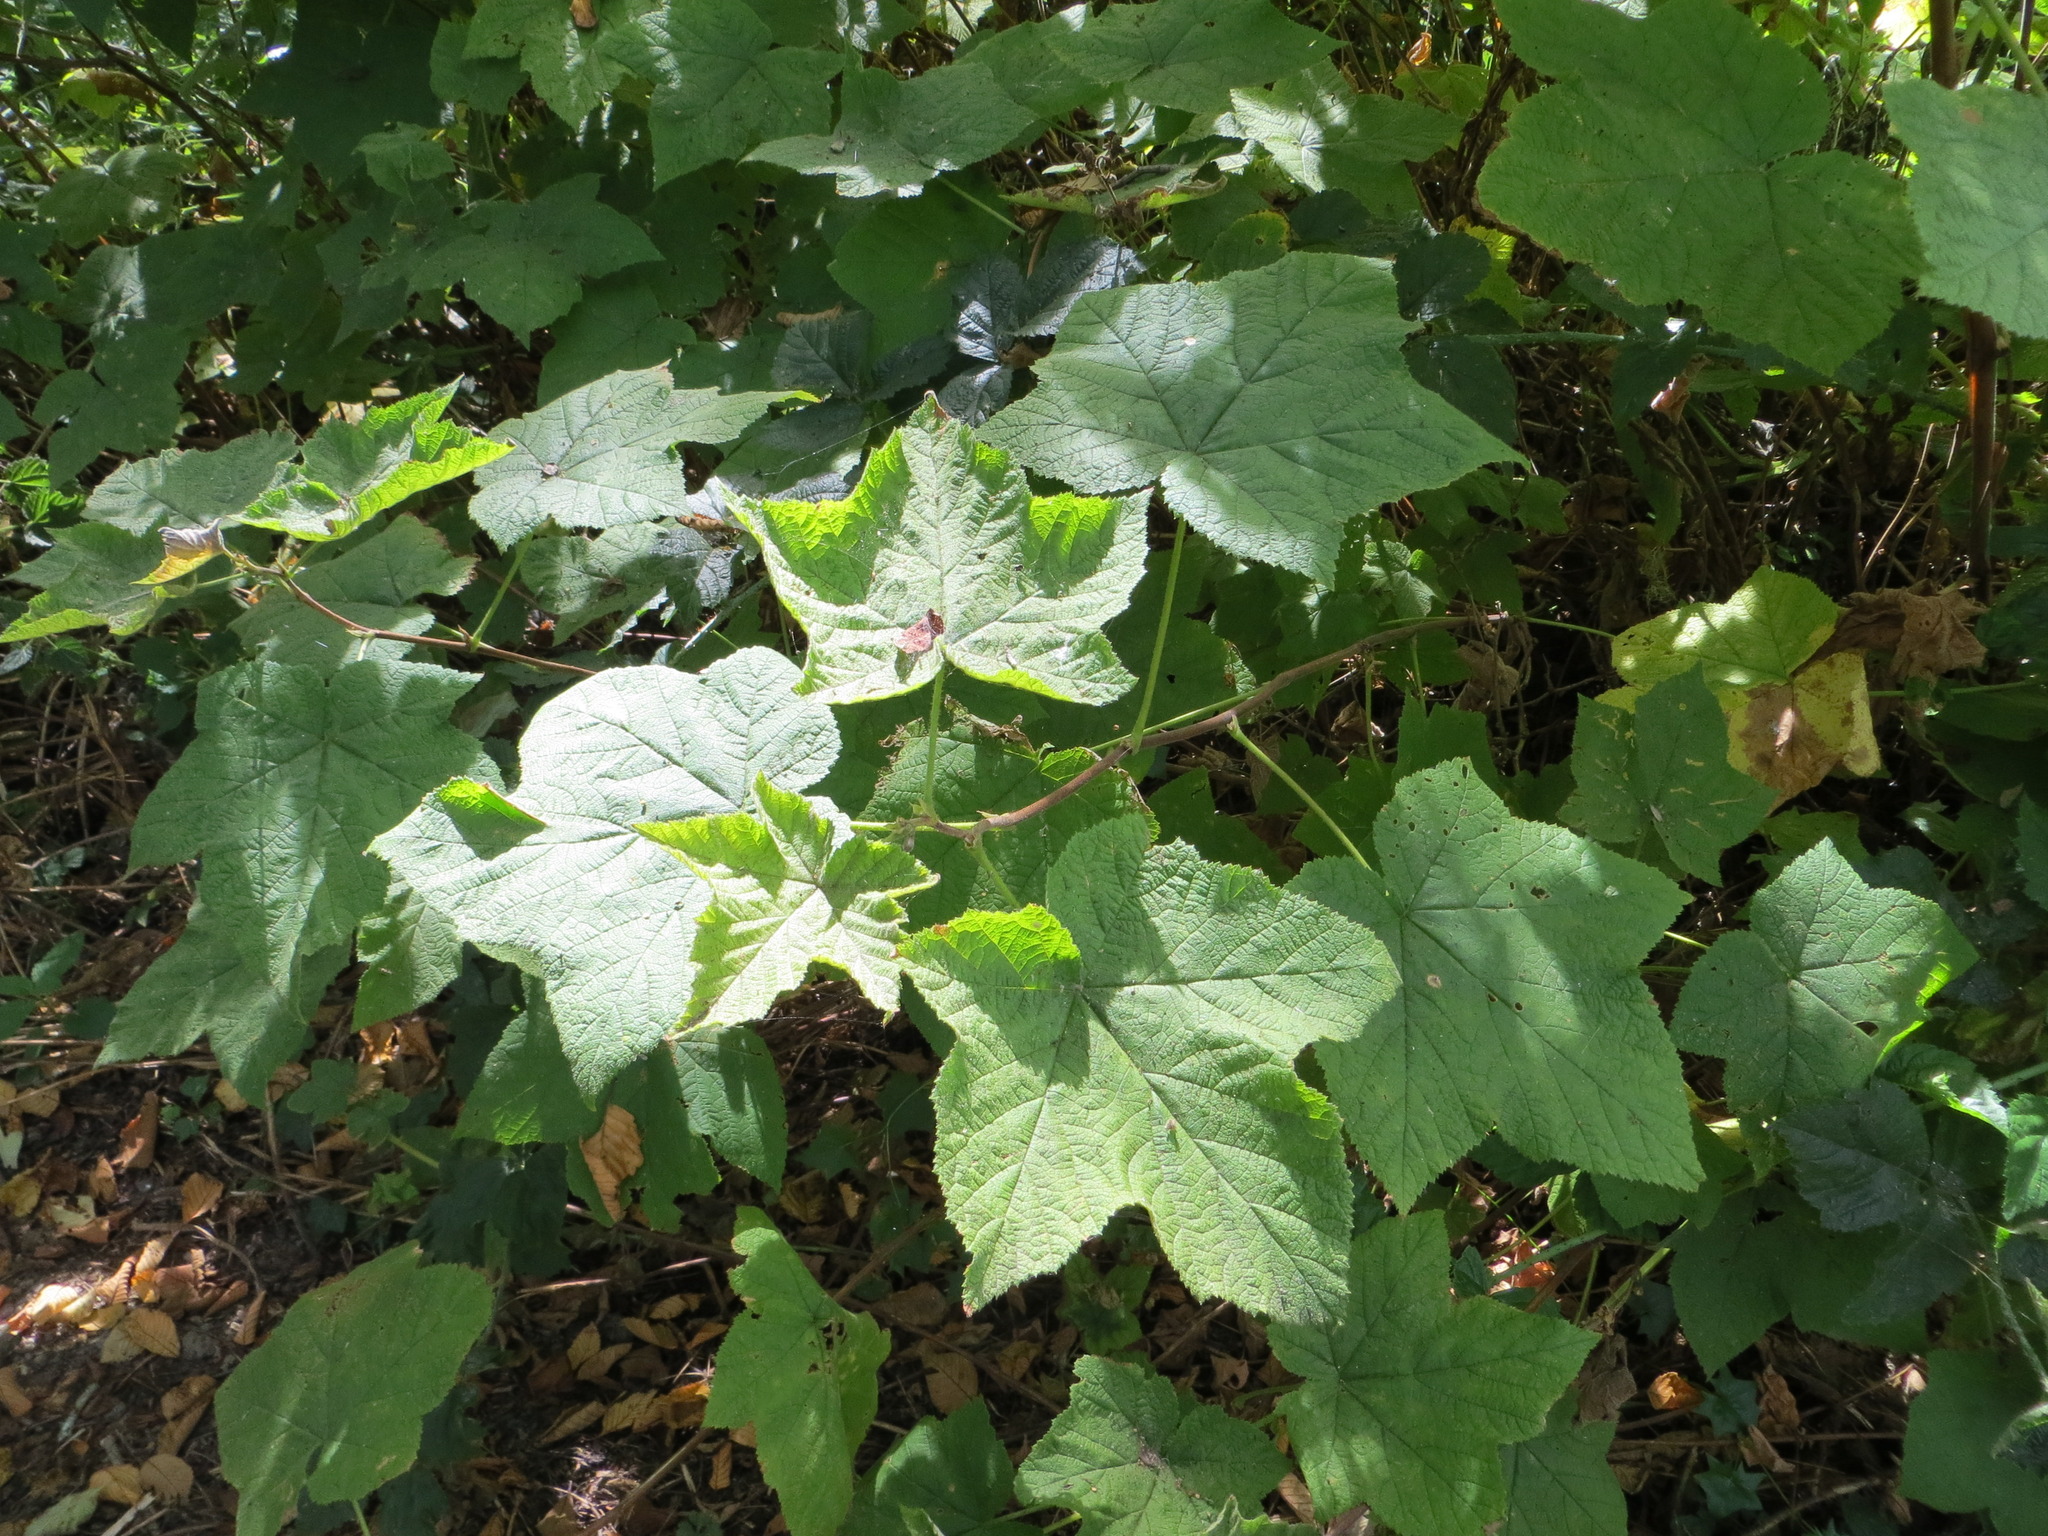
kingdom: Plantae
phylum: Tracheophyta
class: Magnoliopsida
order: Rosales
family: Rosaceae
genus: Rubus
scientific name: Rubus parviflorus
